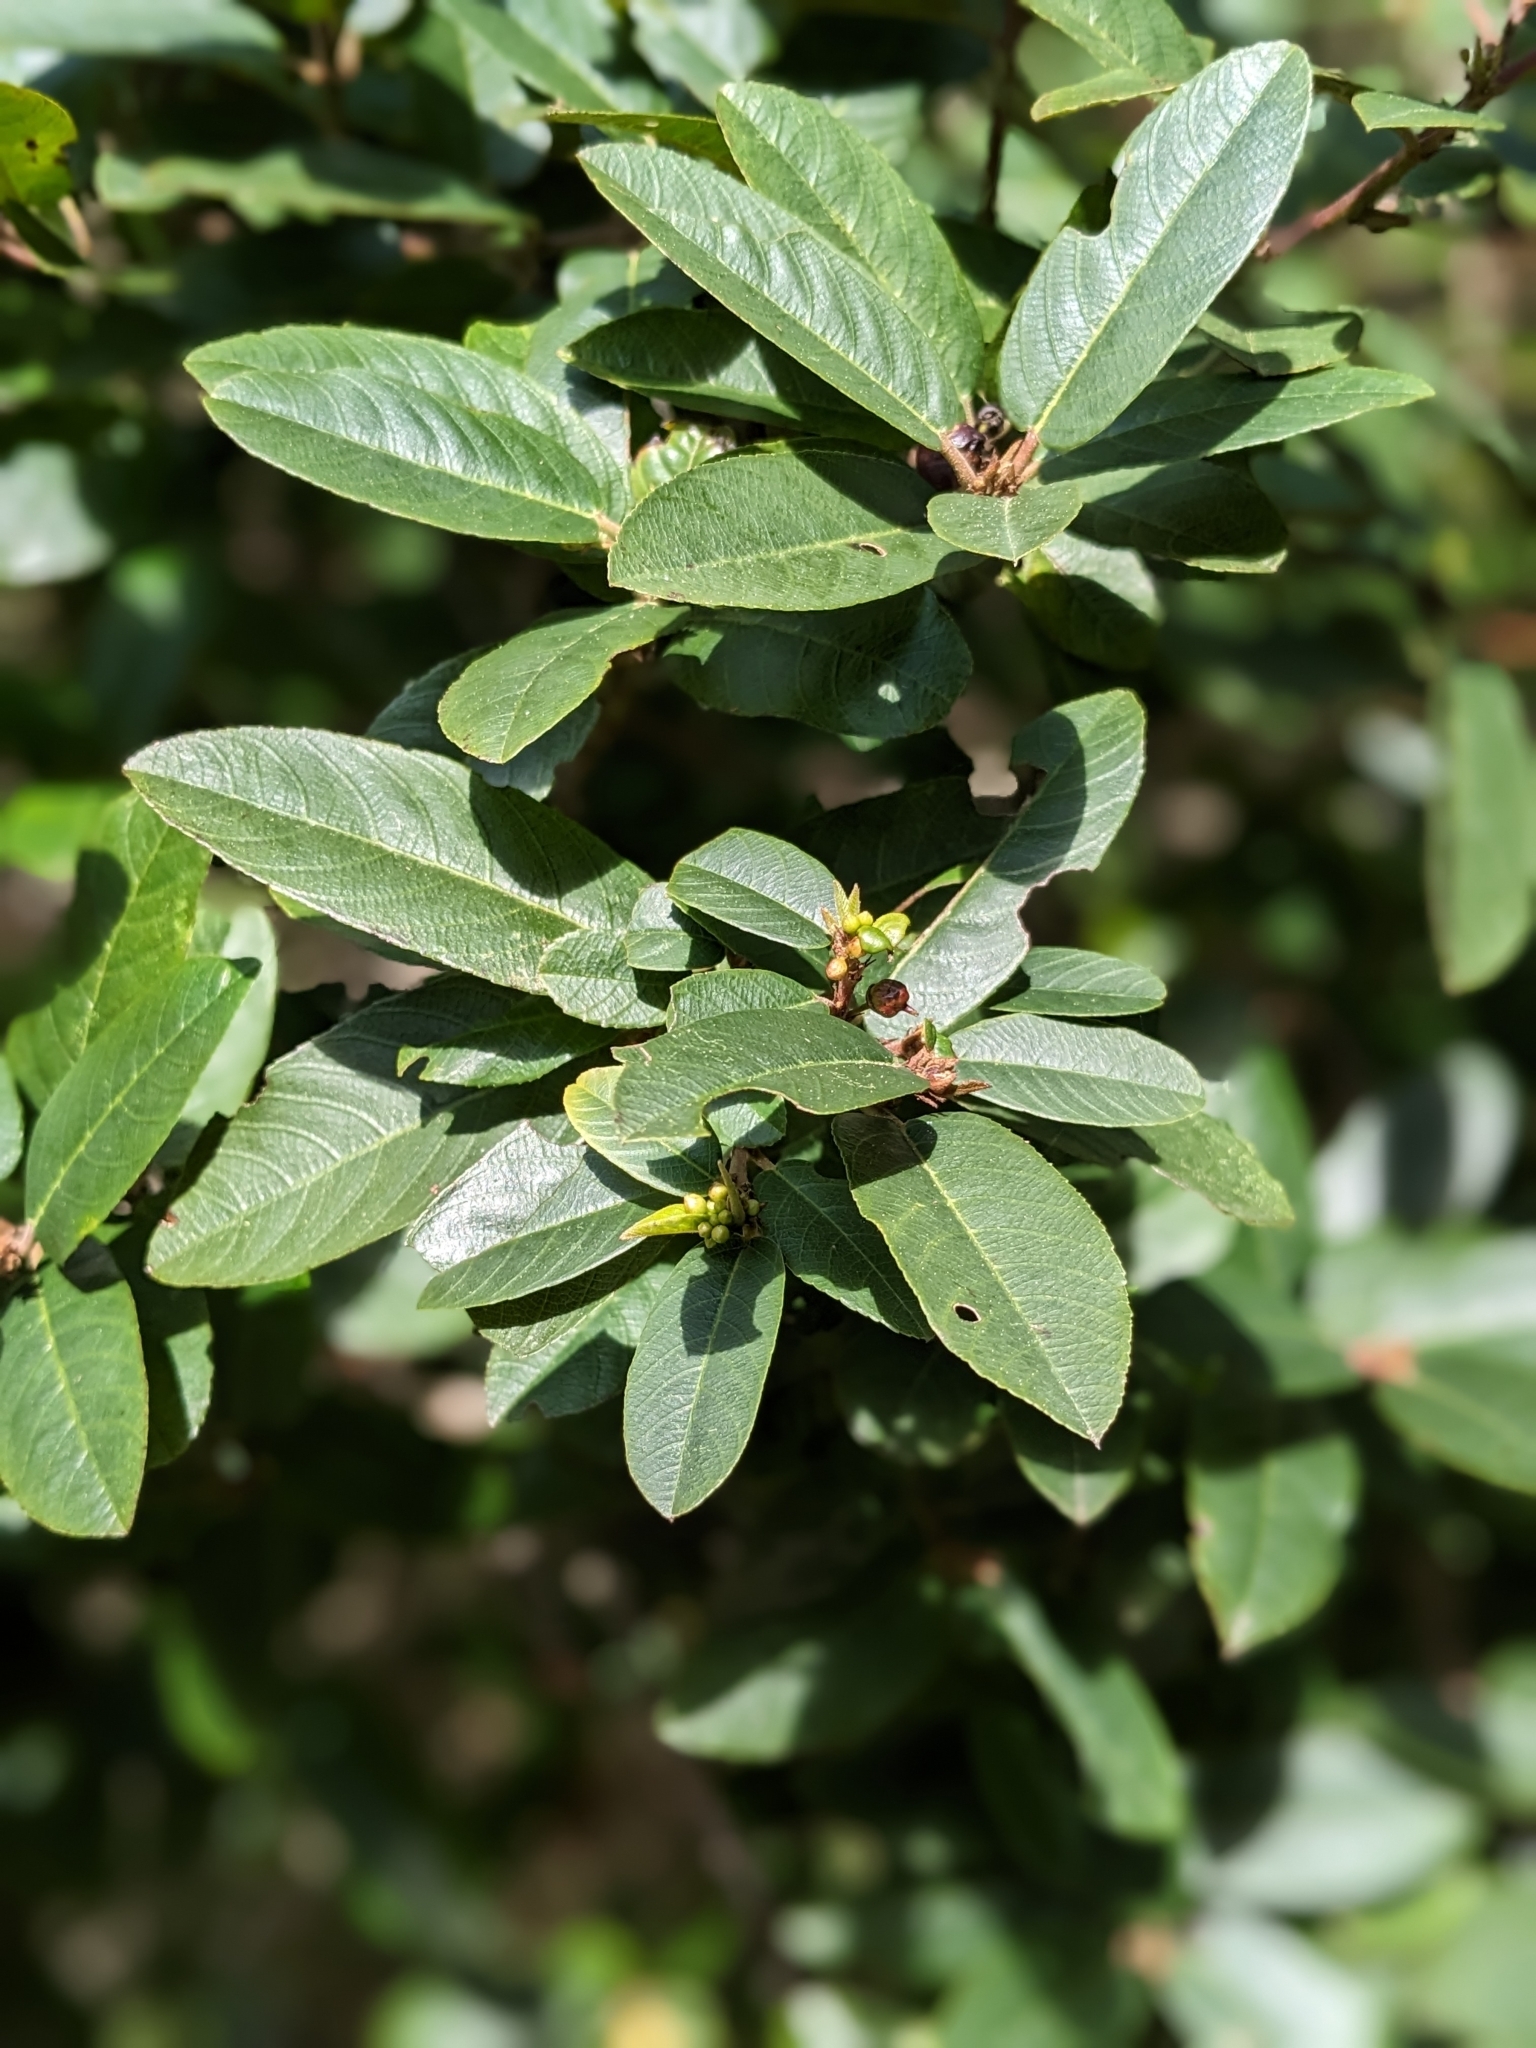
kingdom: Plantae
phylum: Tracheophyta
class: Magnoliopsida
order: Rosales
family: Rhamnaceae
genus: Frangula
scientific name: Frangula californica
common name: California buckthorn
